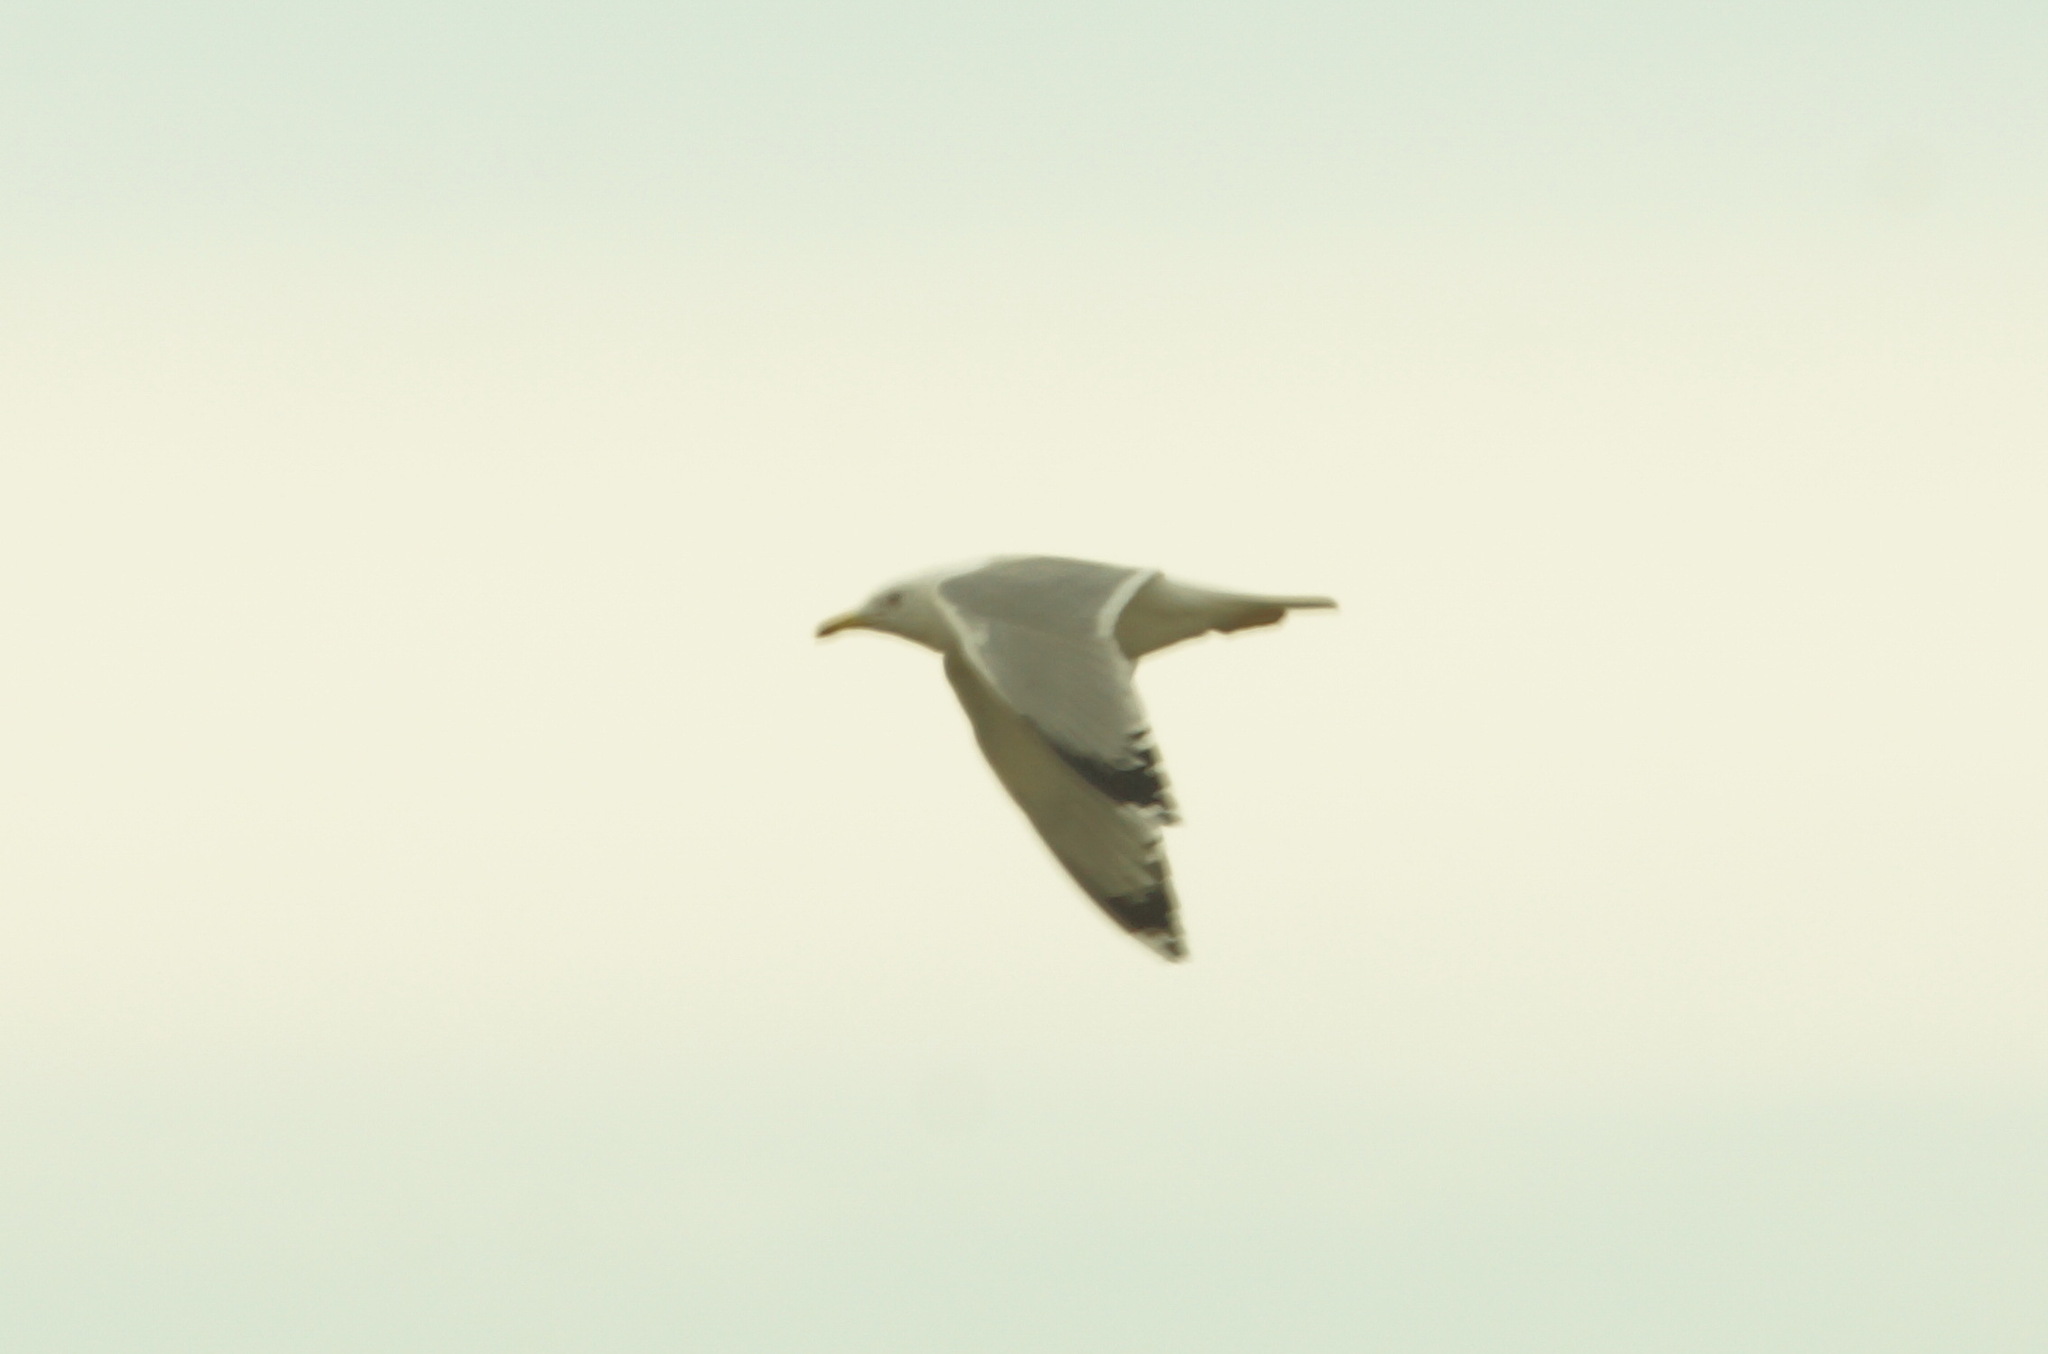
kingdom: Animalia
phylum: Chordata
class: Aves
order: Charadriiformes
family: Laridae
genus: Larus
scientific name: Larus cachinnans
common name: Caspian gull
